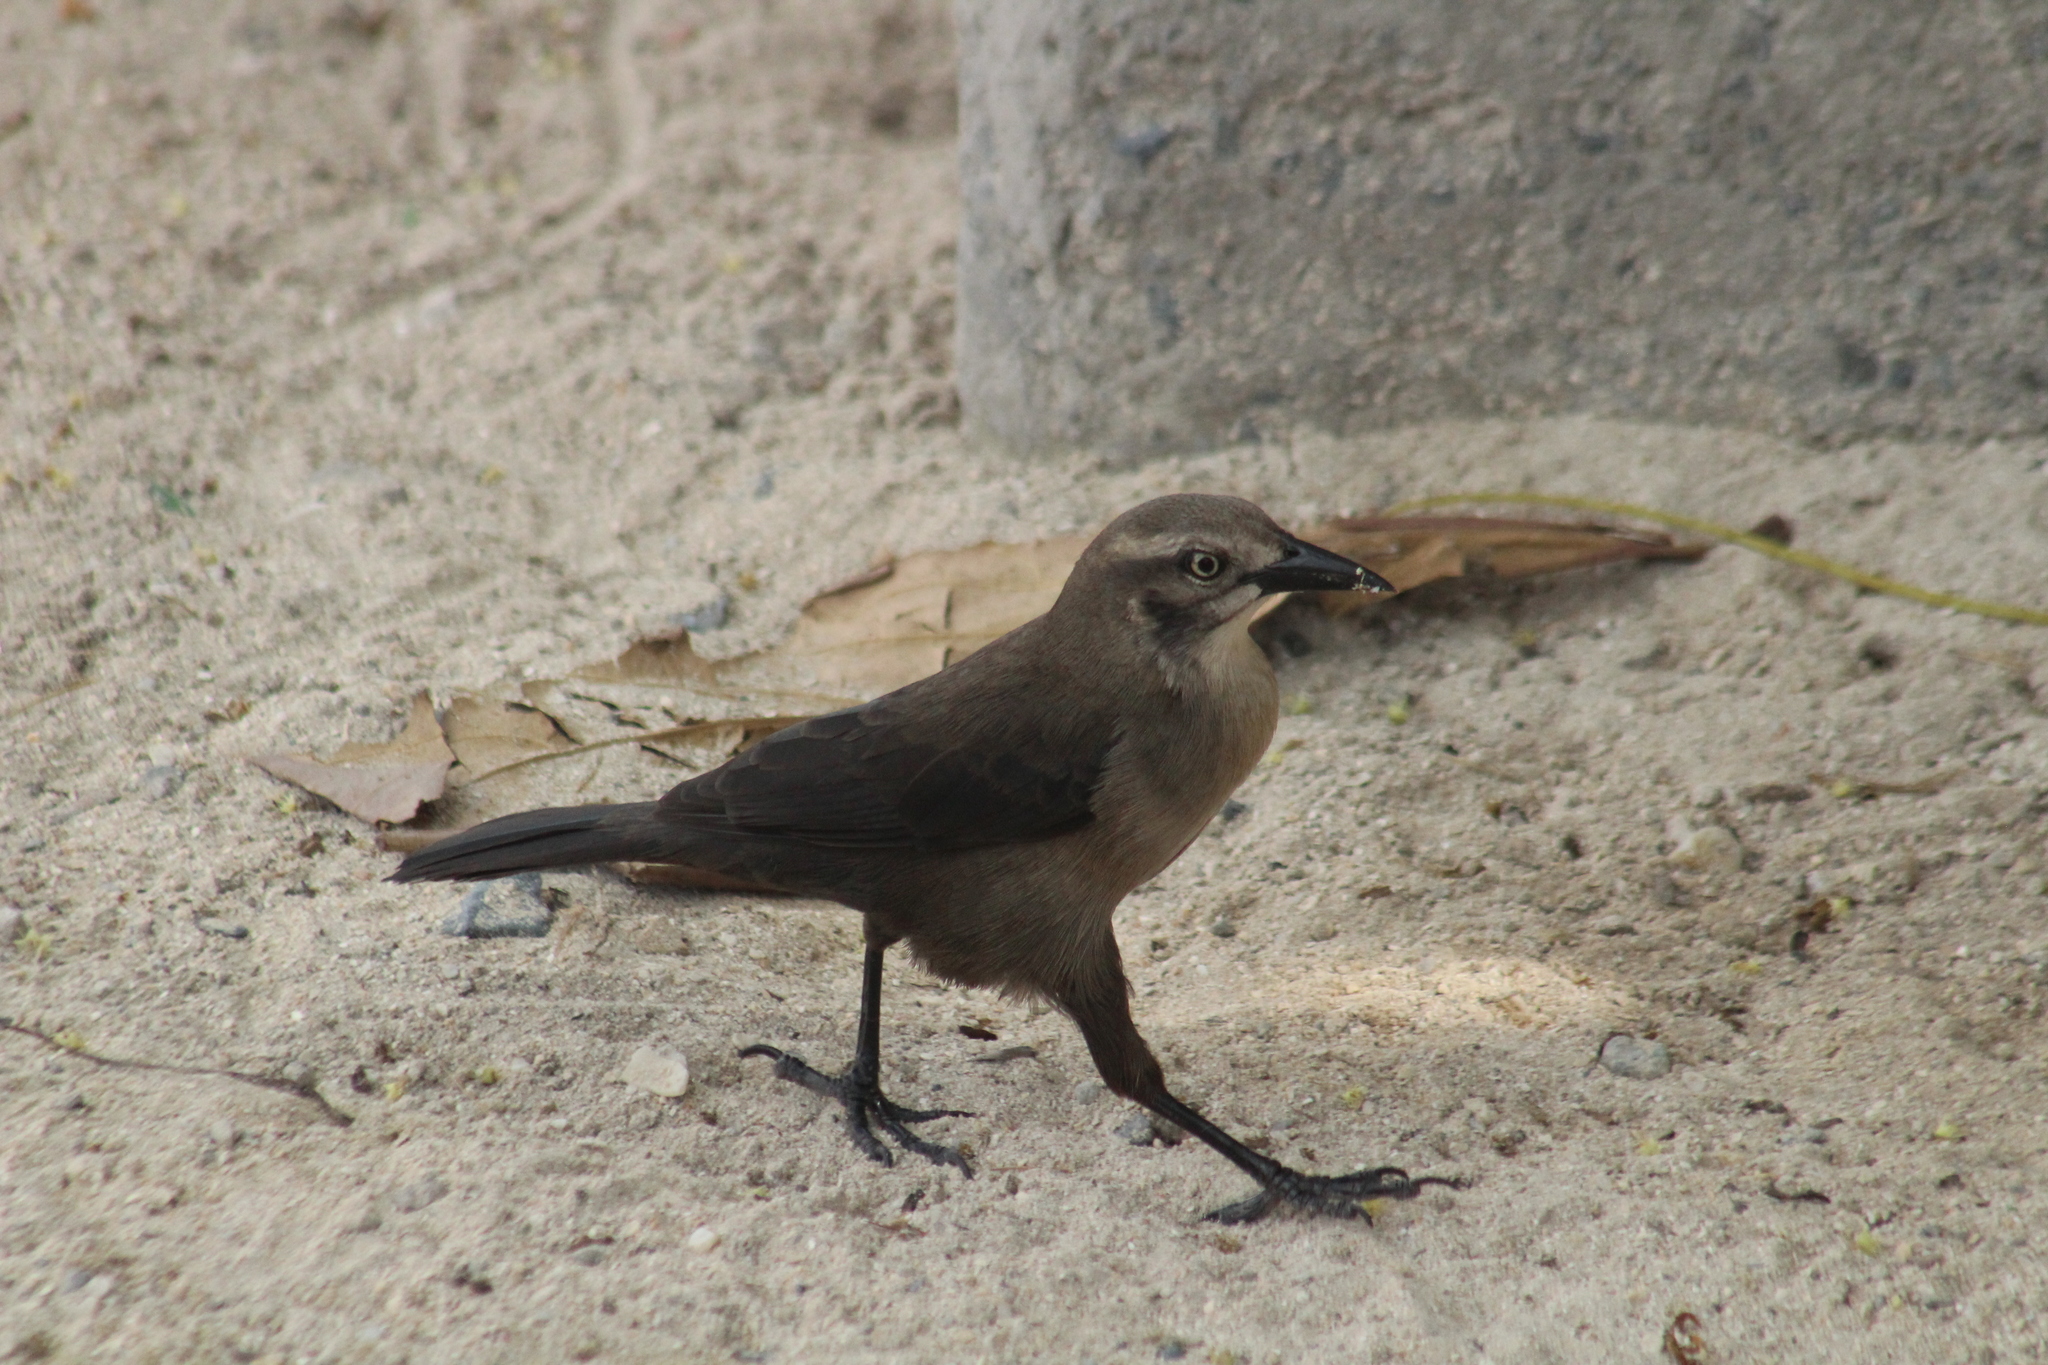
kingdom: Animalia
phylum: Chordata
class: Aves
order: Passeriformes
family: Icteridae
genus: Quiscalus
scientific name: Quiscalus lugubris
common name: Carib grackle
